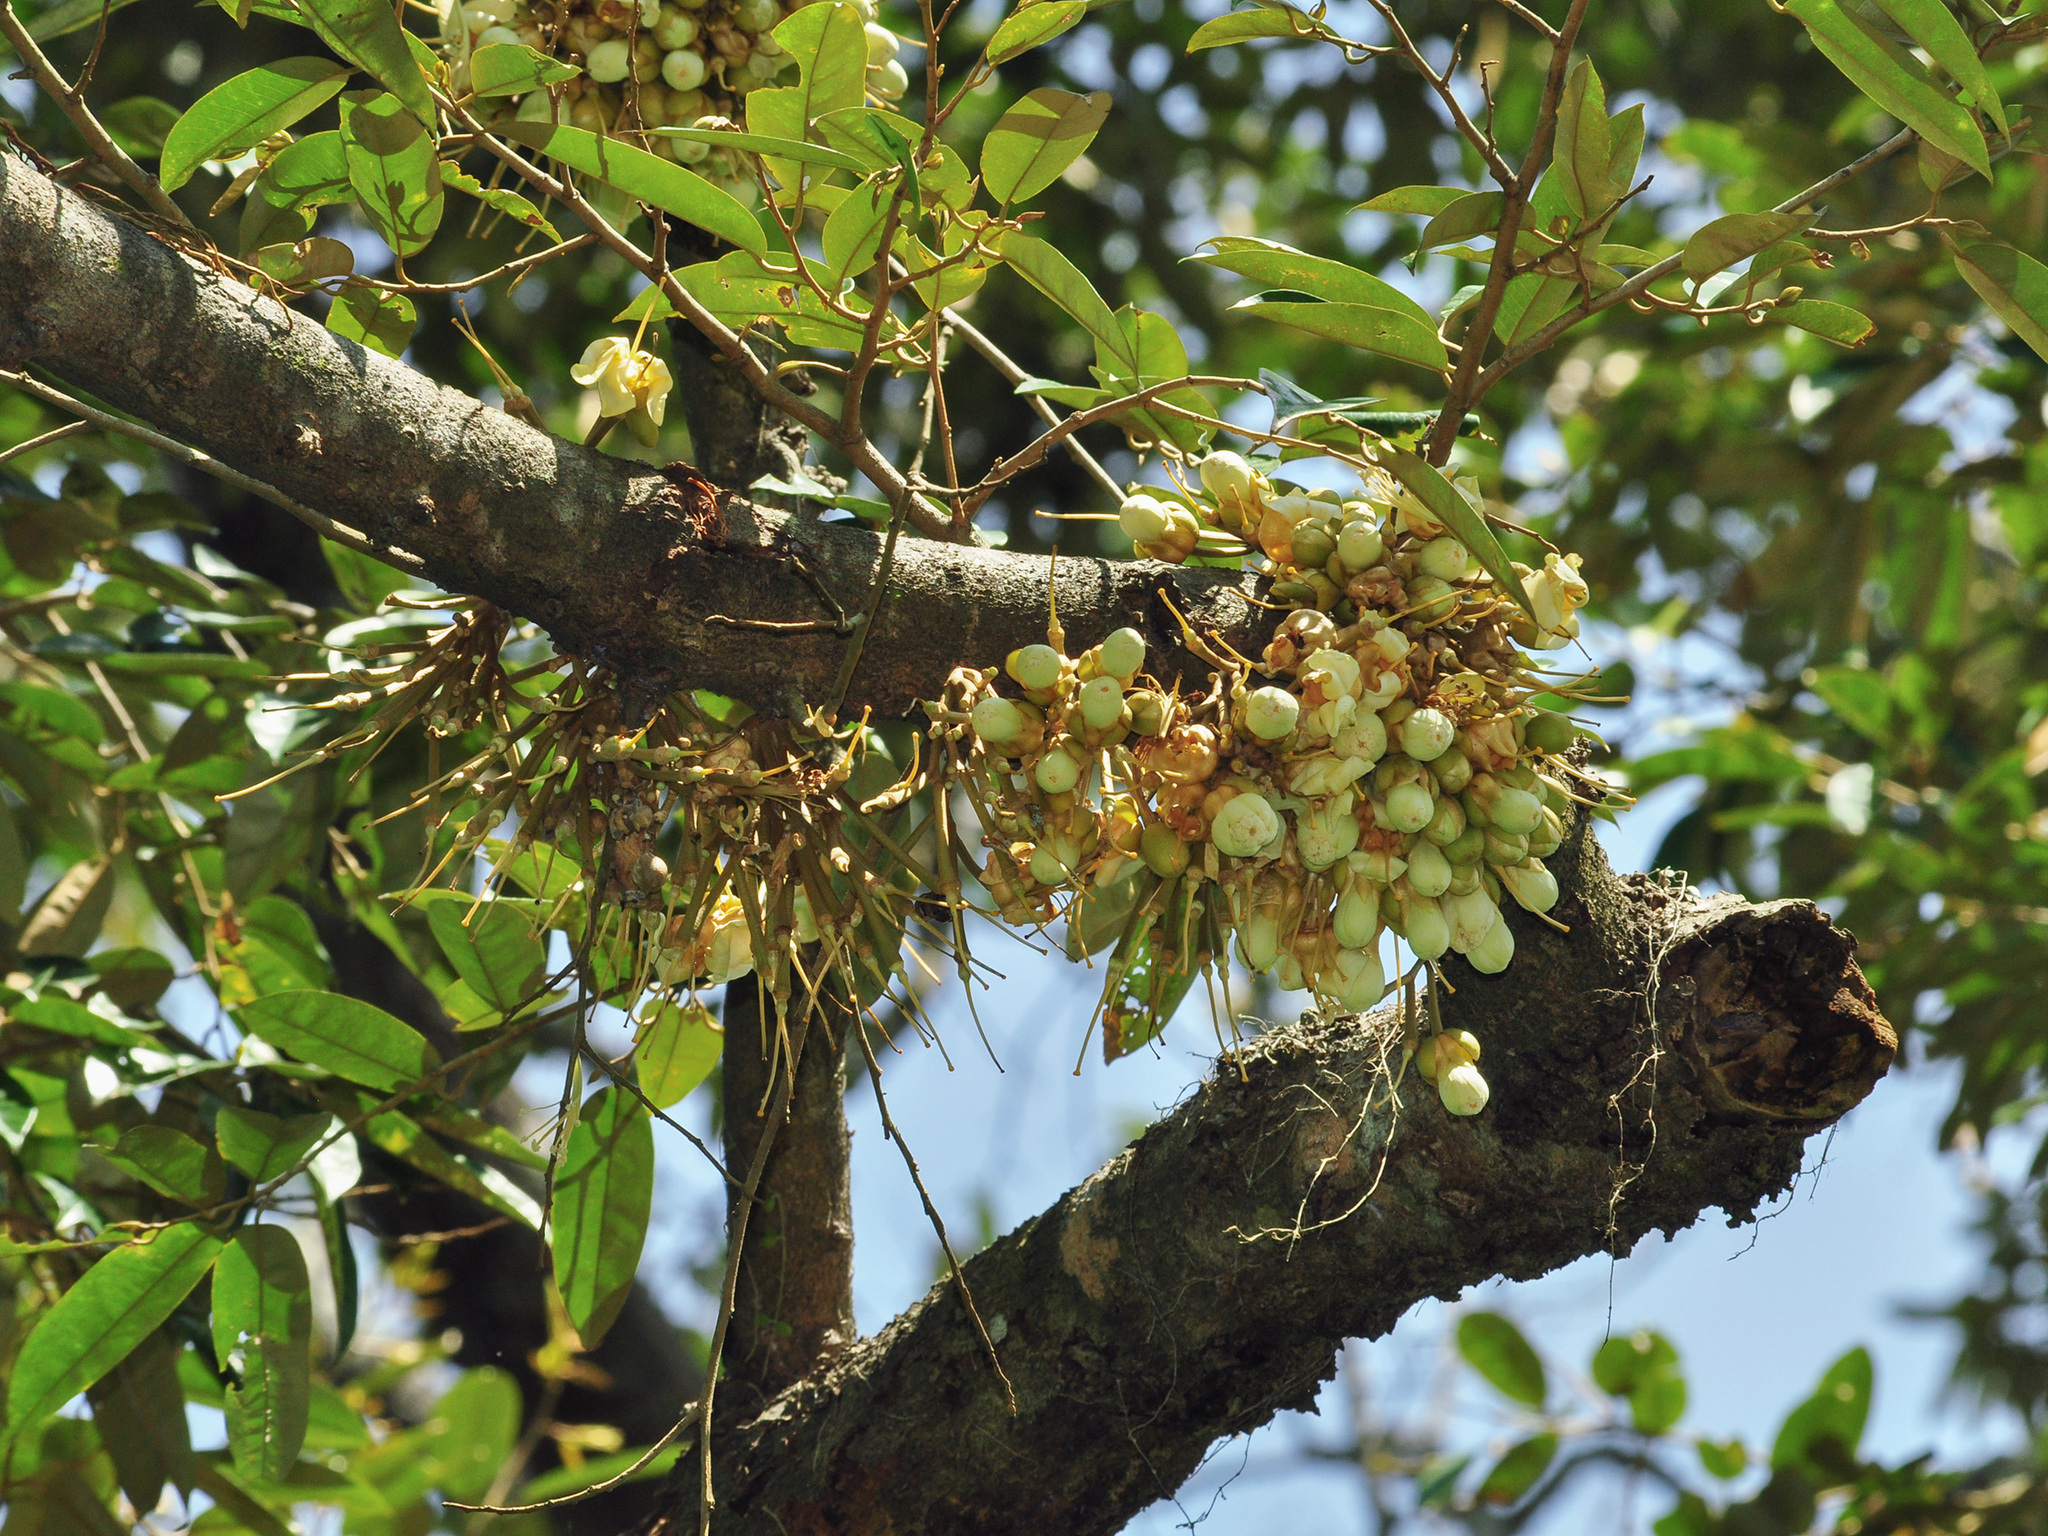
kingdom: Plantae
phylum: Tracheophyta
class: Magnoliopsida
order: Malvales
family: Malvaceae
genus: Durio
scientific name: Durio zibethinus
